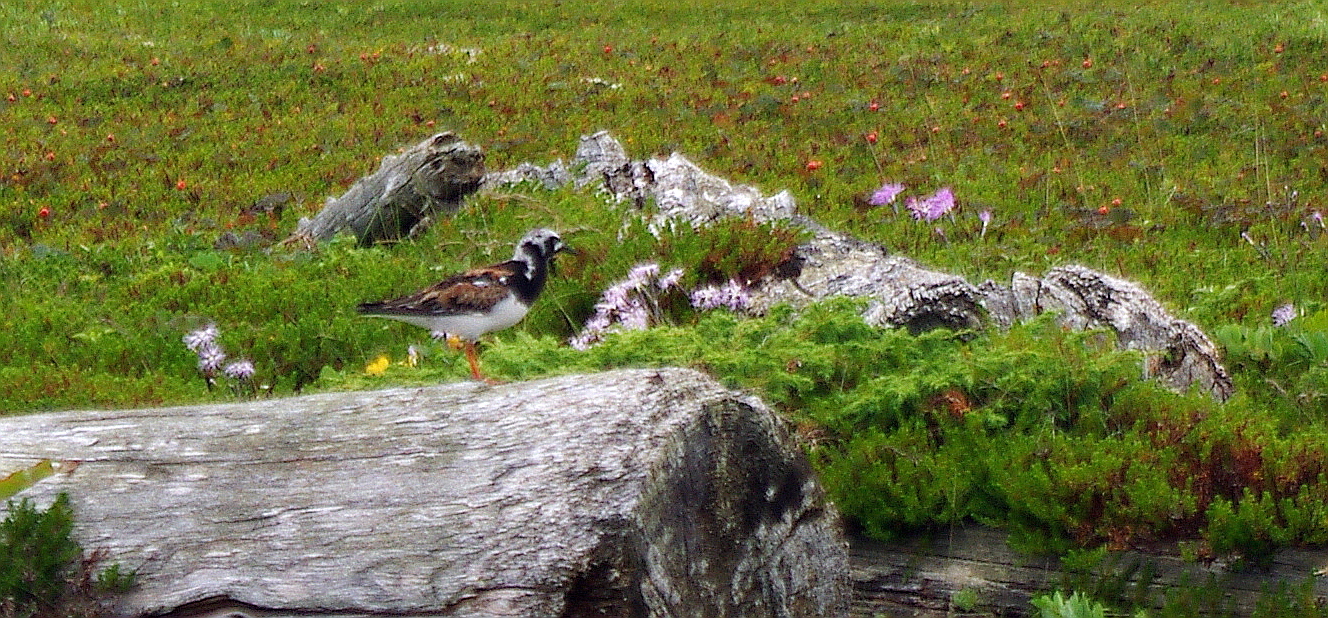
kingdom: Animalia
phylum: Chordata
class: Aves
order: Charadriiformes
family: Scolopacidae
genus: Arenaria
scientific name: Arenaria interpres
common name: Ruddy turnstone
